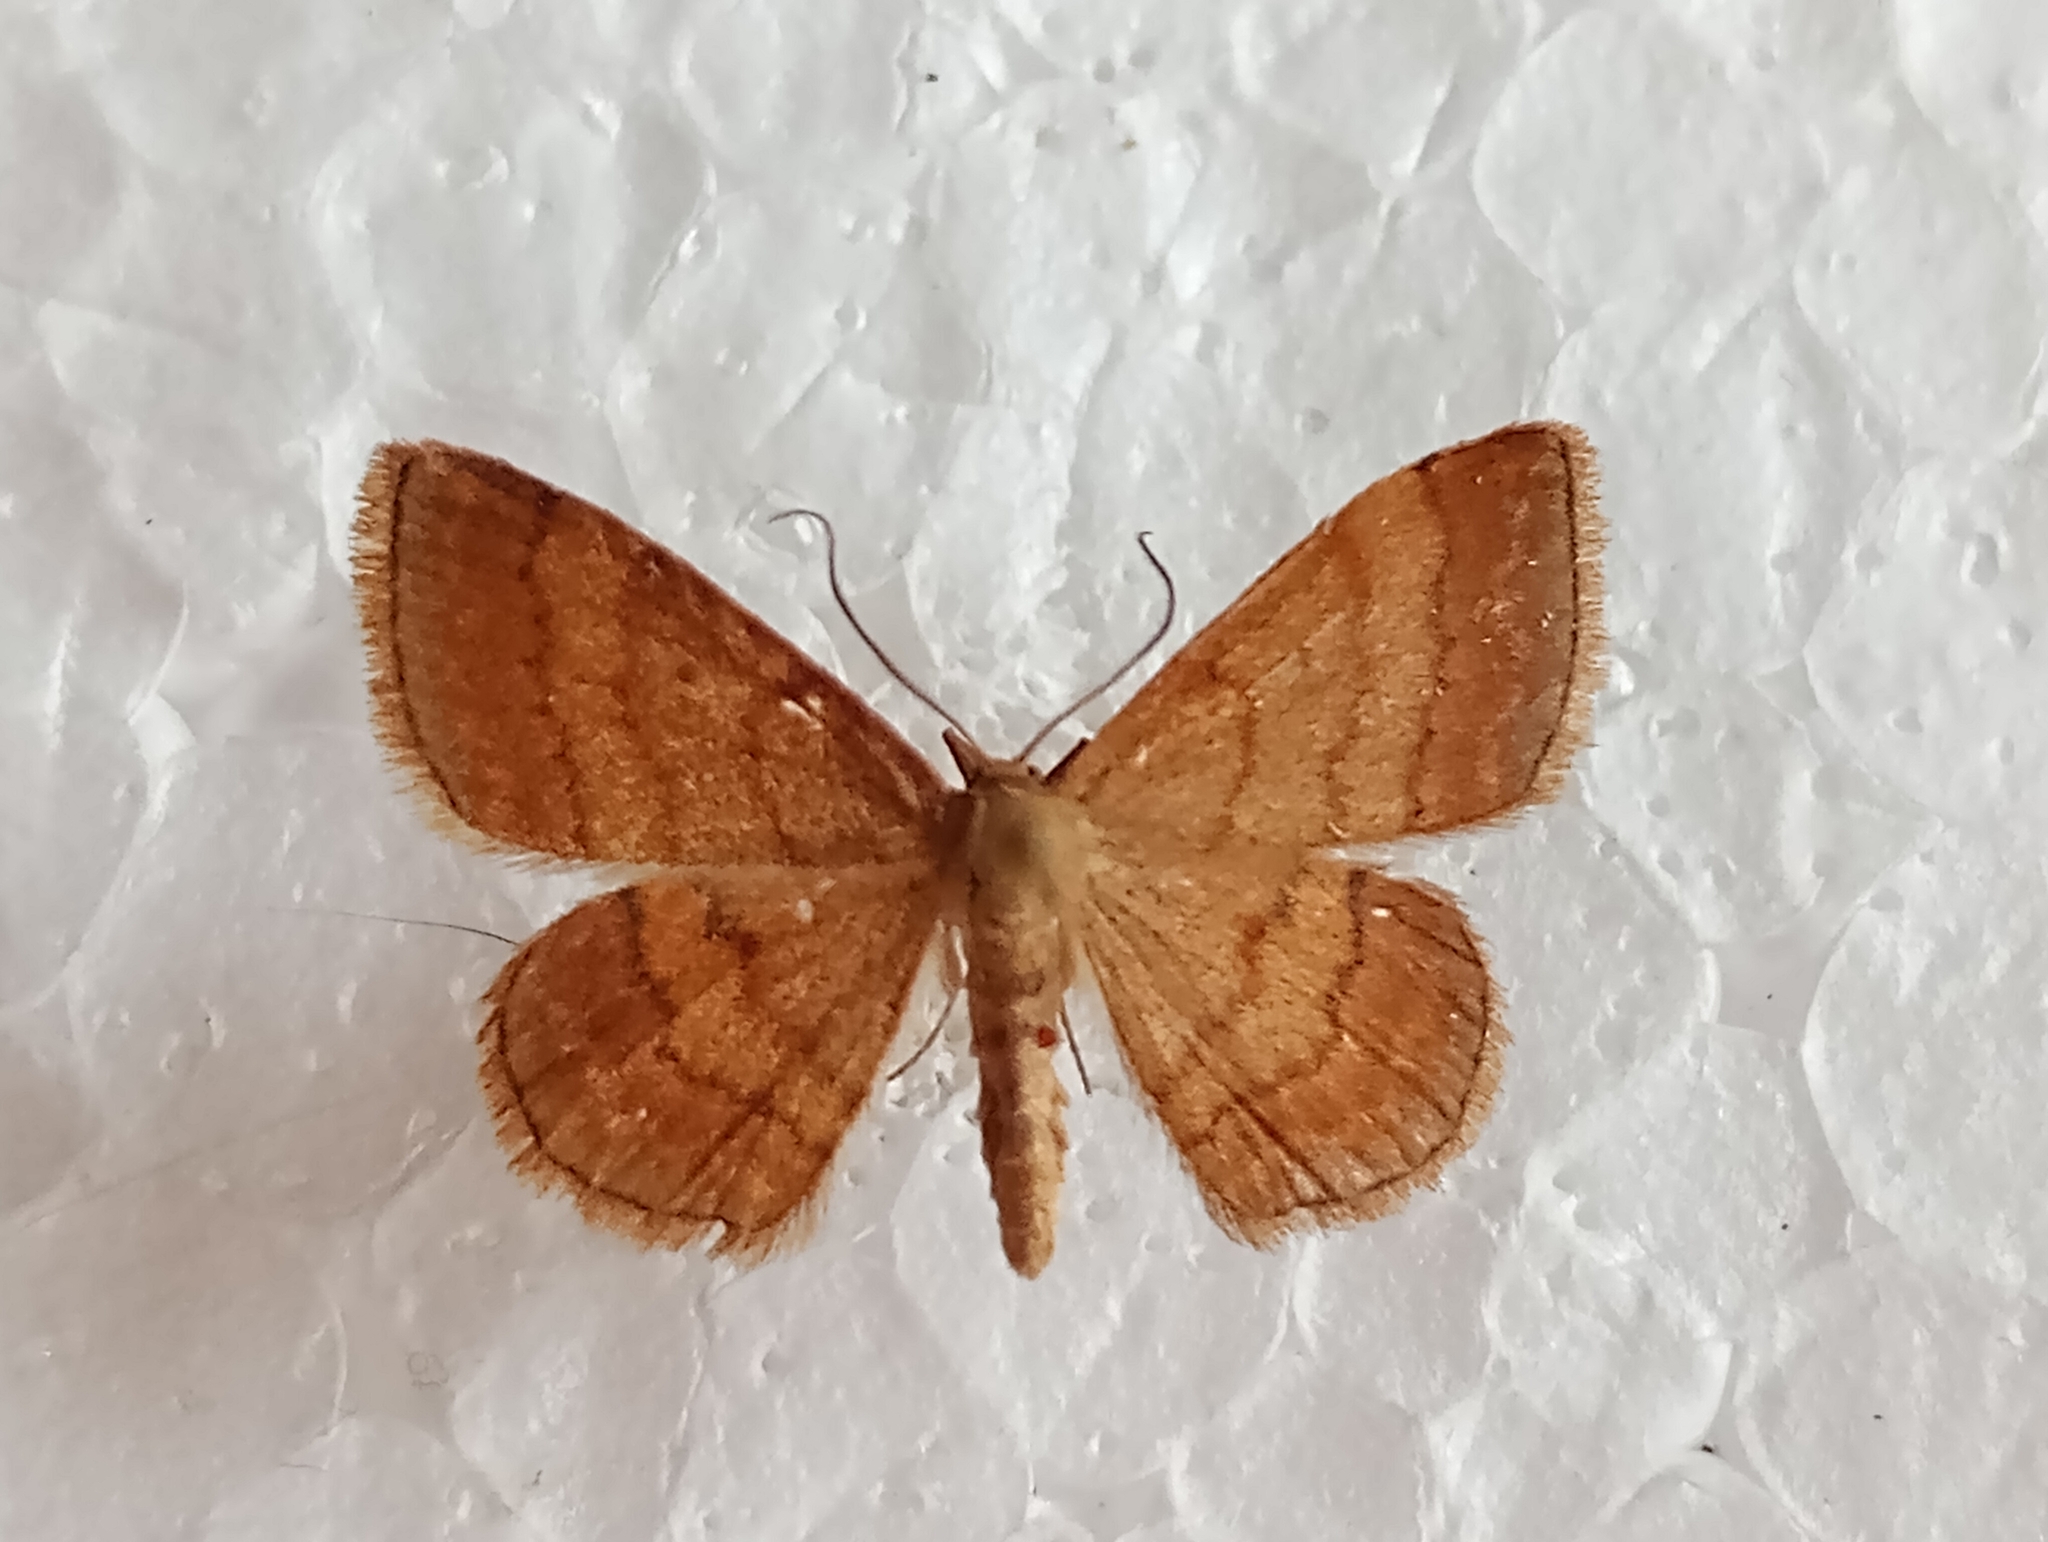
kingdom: Animalia
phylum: Arthropoda
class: Insecta
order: Lepidoptera
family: Geometridae
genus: Scopula
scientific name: Scopula rubiginata
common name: Tawny wave
